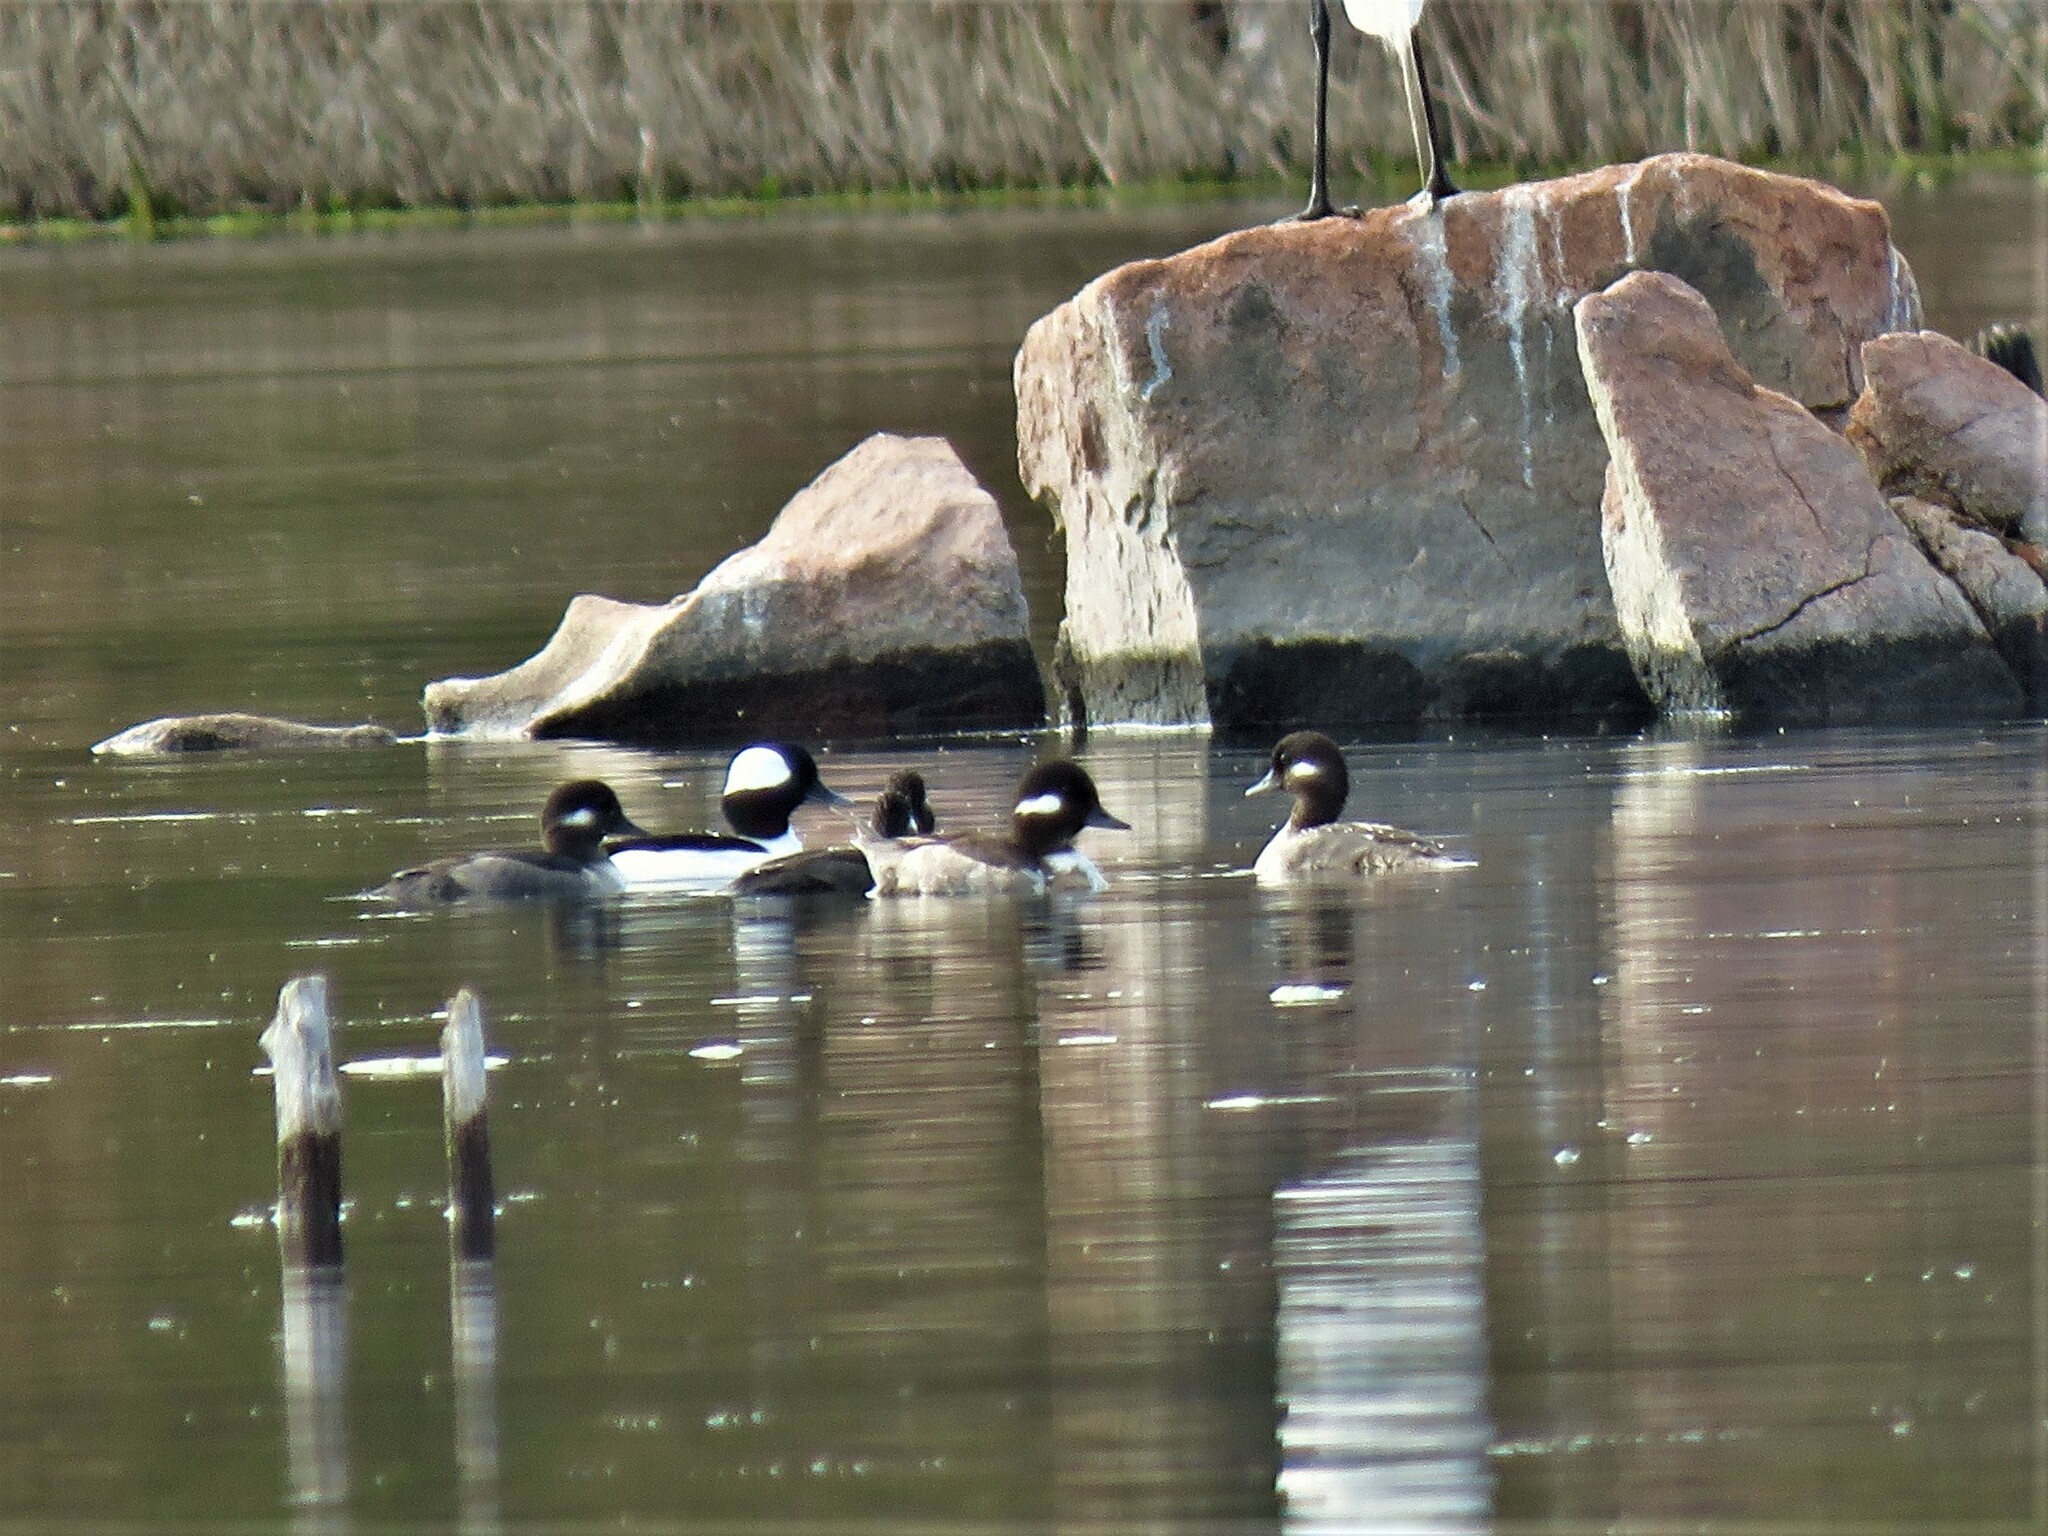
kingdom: Animalia
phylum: Chordata
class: Aves
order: Anseriformes
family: Anatidae
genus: Bucephala
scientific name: Bucephala albeola
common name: Bufflehead
